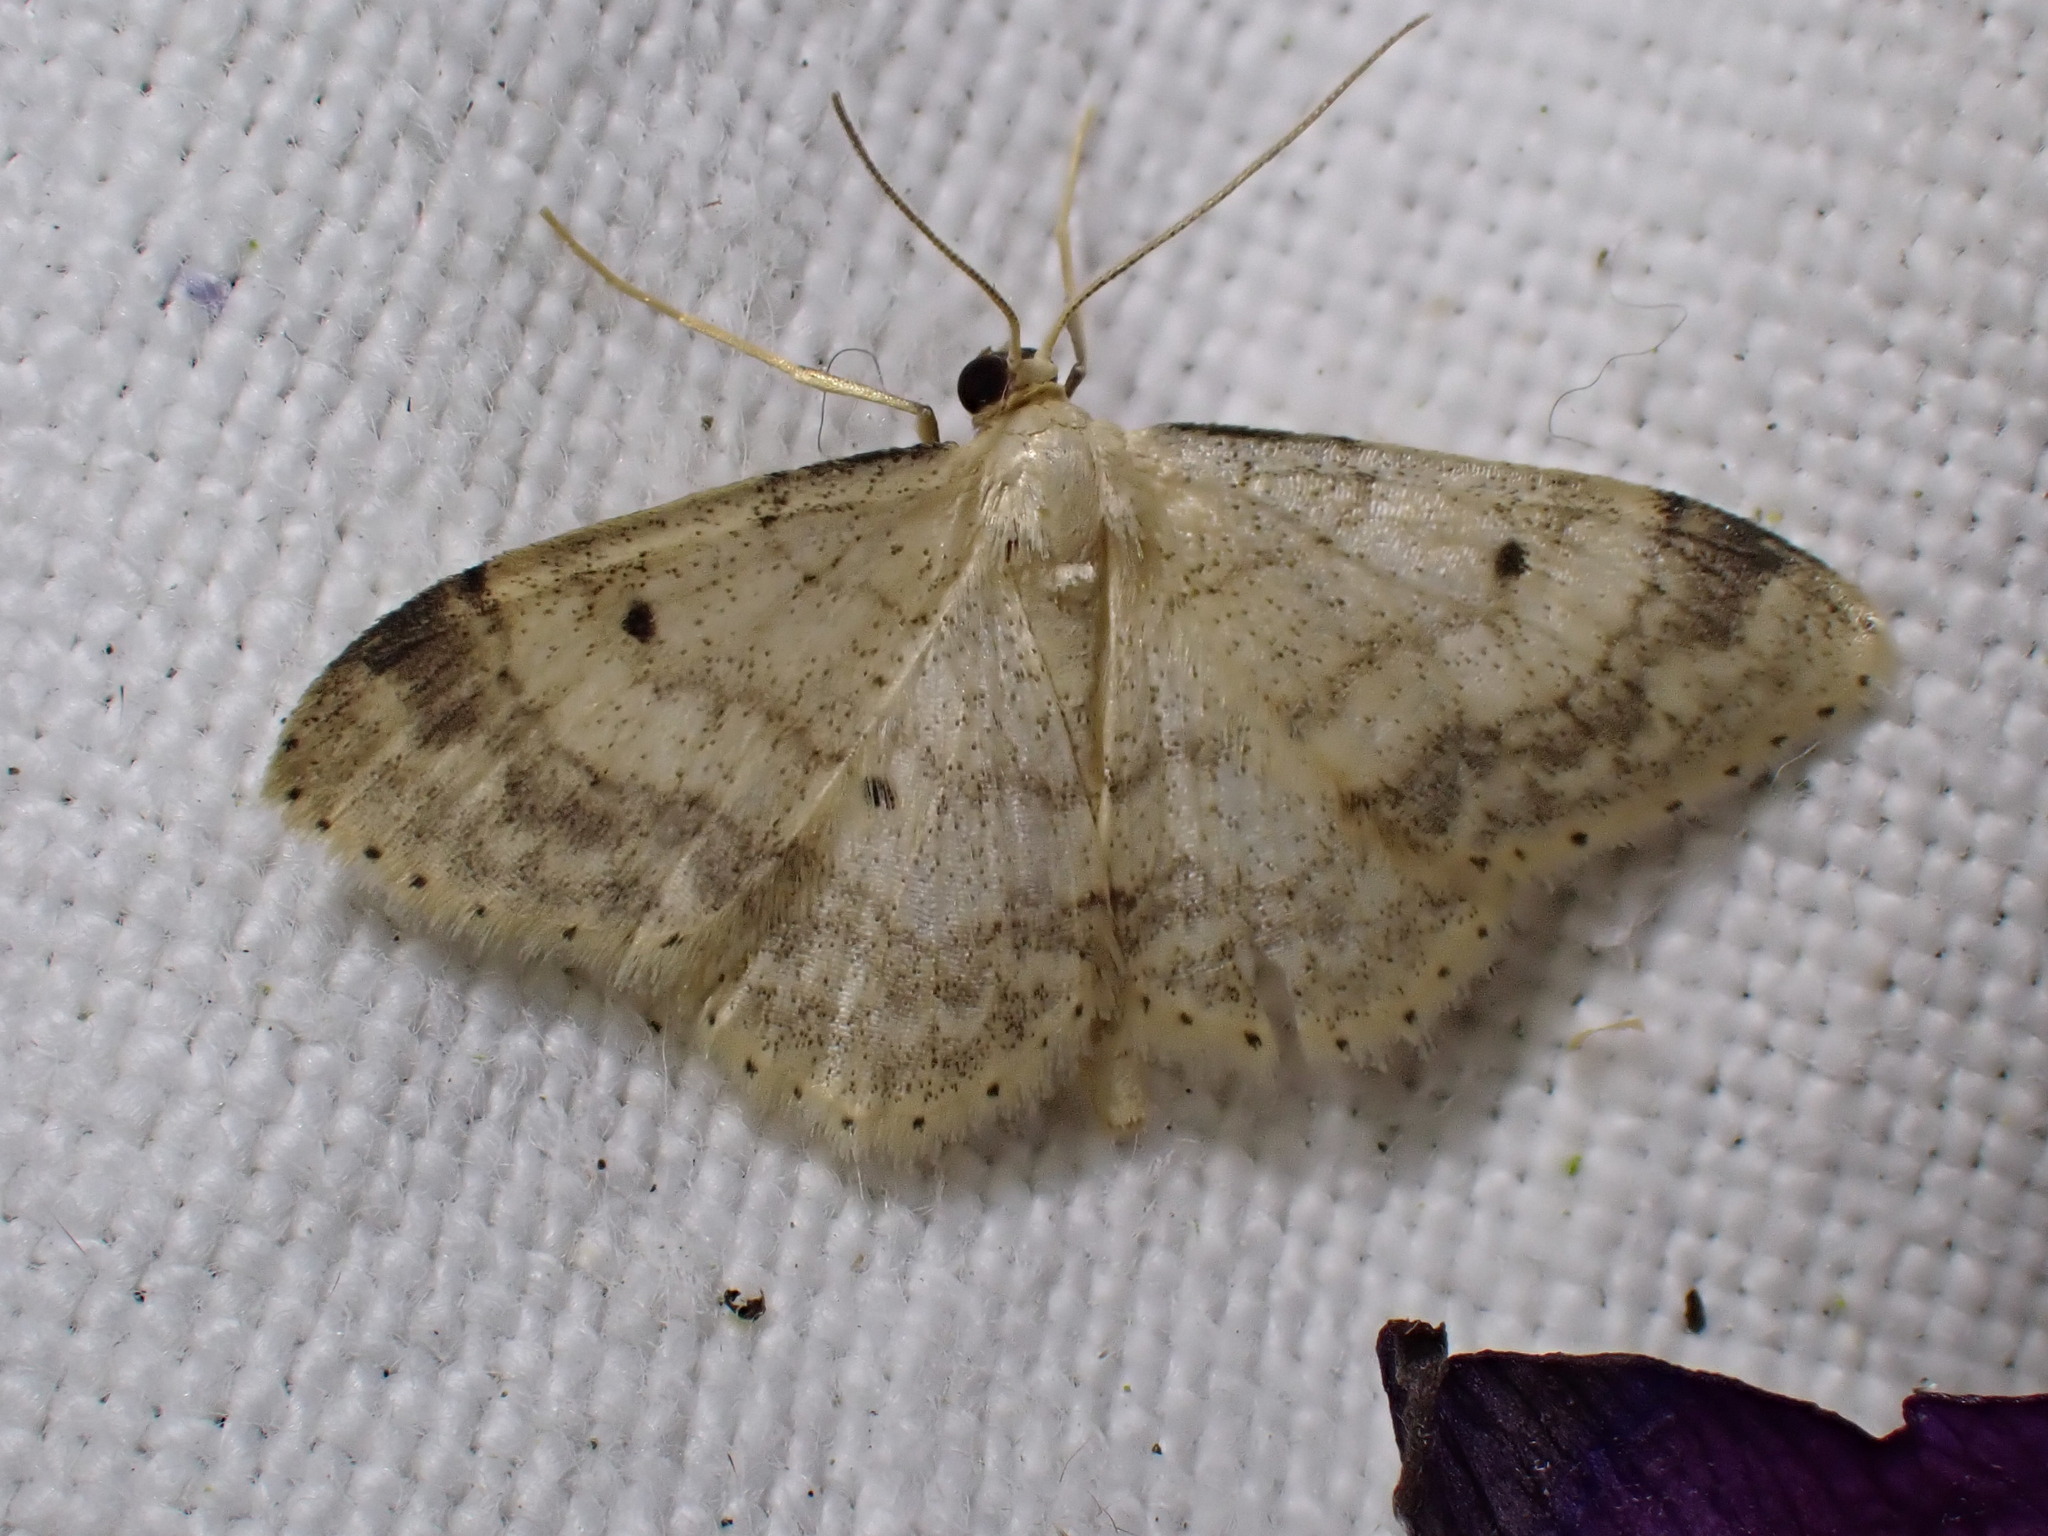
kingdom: Animalia
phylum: Arthropoda
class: Insecta
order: Lepidoptera
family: Geometridae
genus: Idaea
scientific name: Idaea biselata
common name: Small fan-footed wave
